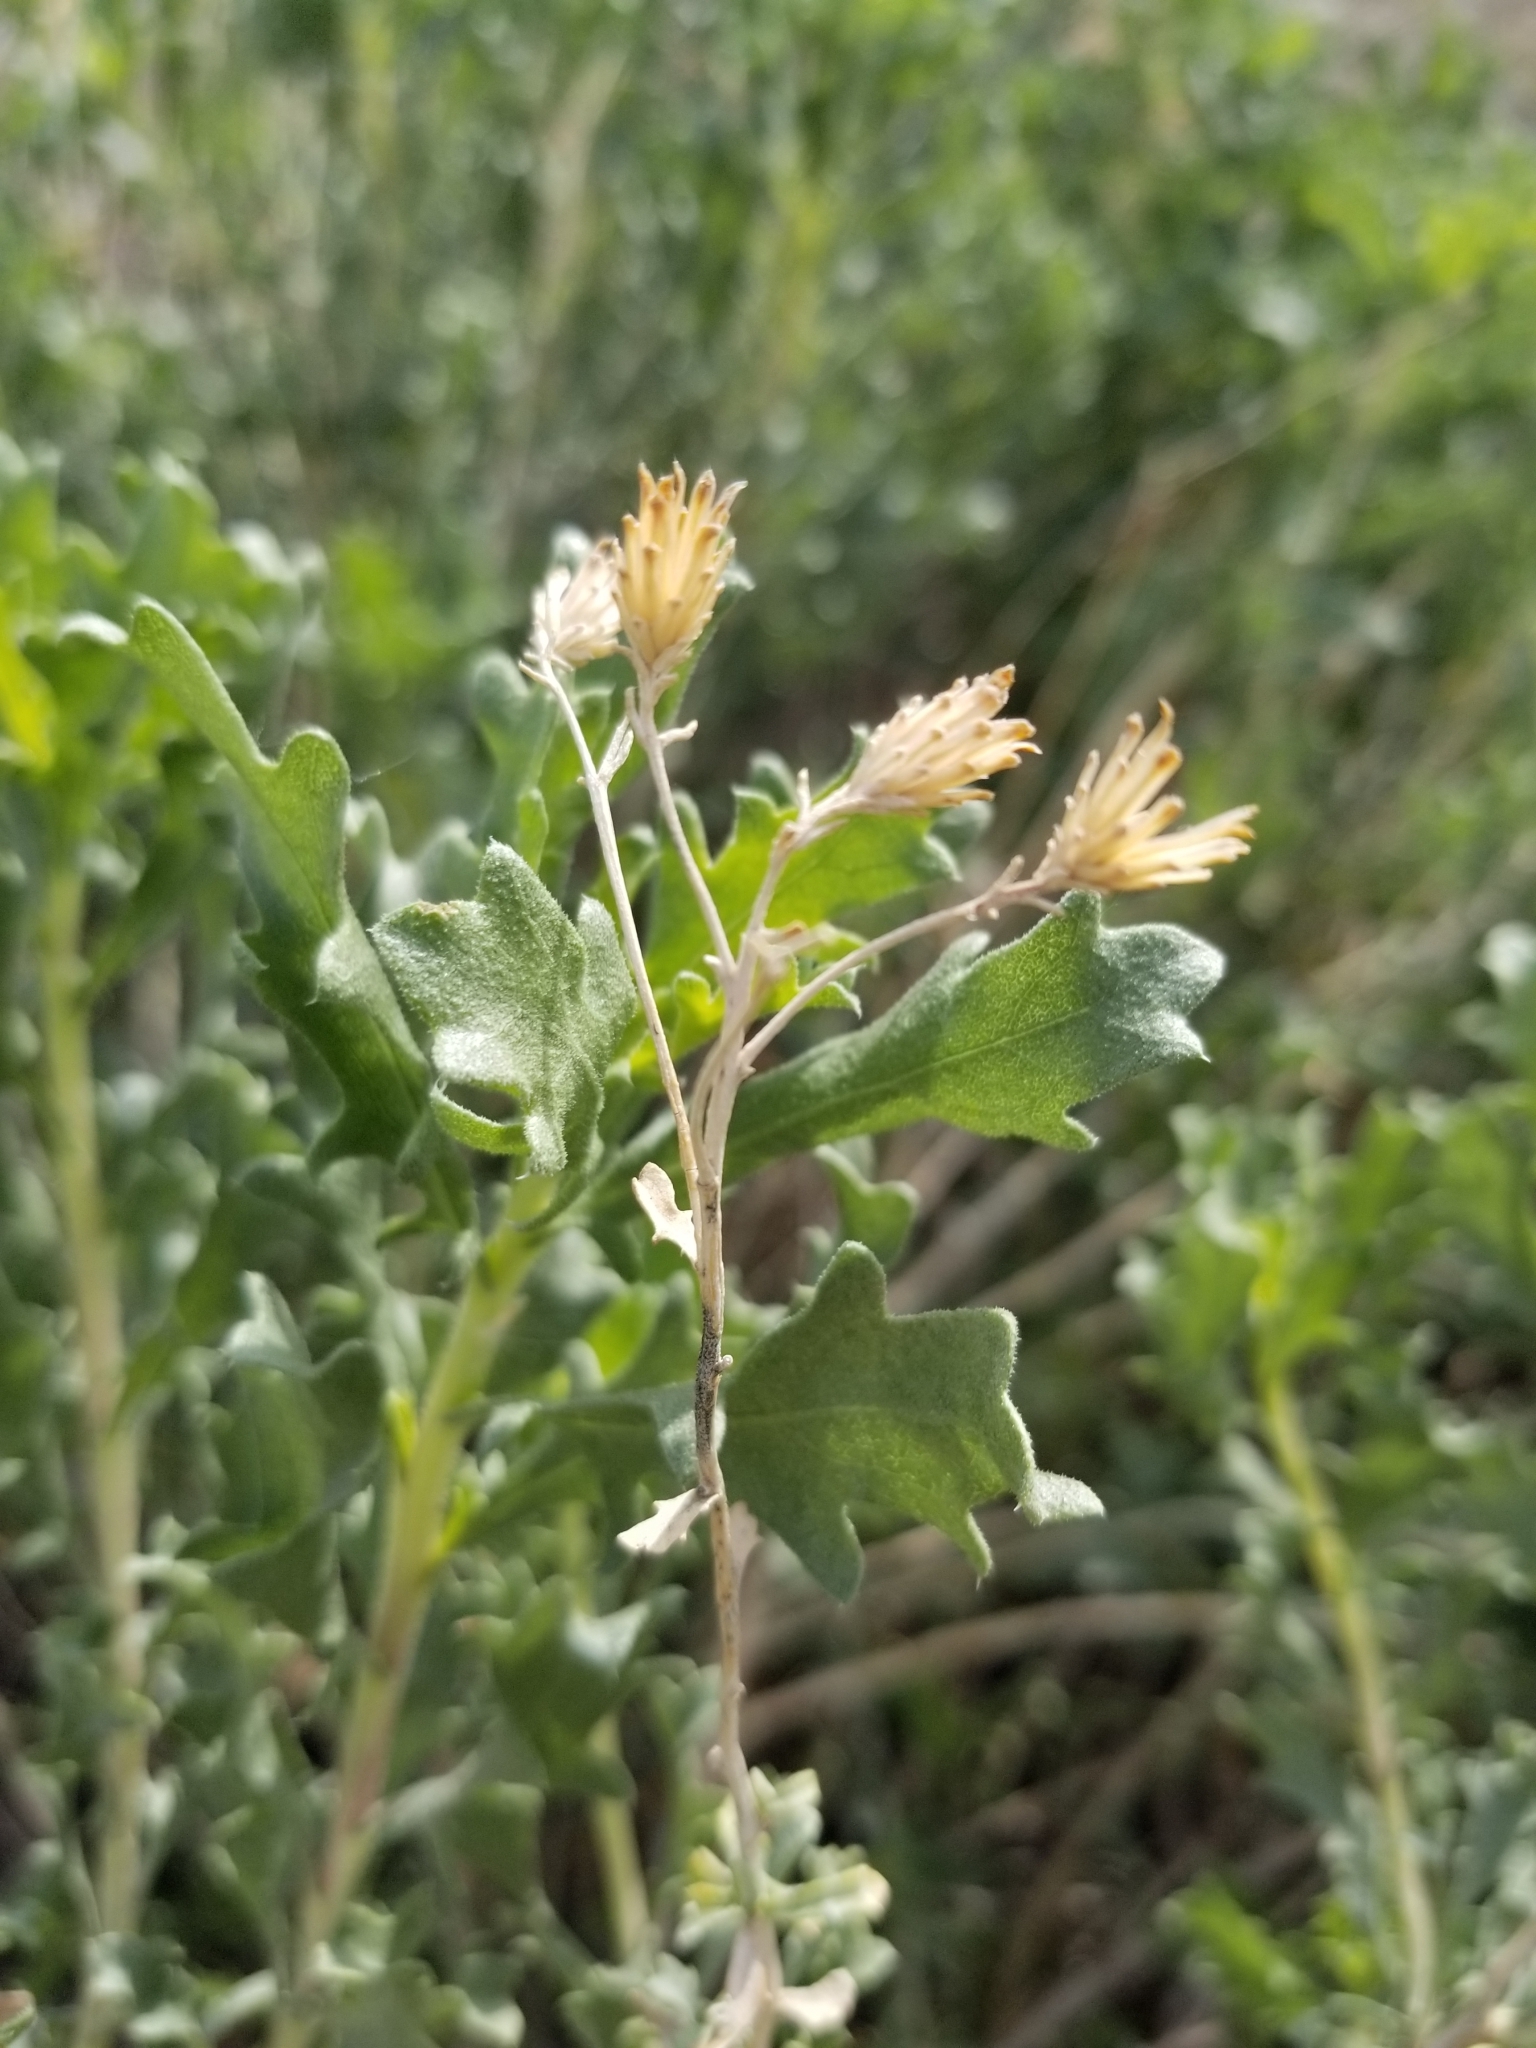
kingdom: Plantae
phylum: Tracheophyta
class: Magnoliopsida
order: Asterales
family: Asteraceae
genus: Isocoma
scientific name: Isocoma acradenia
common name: Alkali jimmyweed
